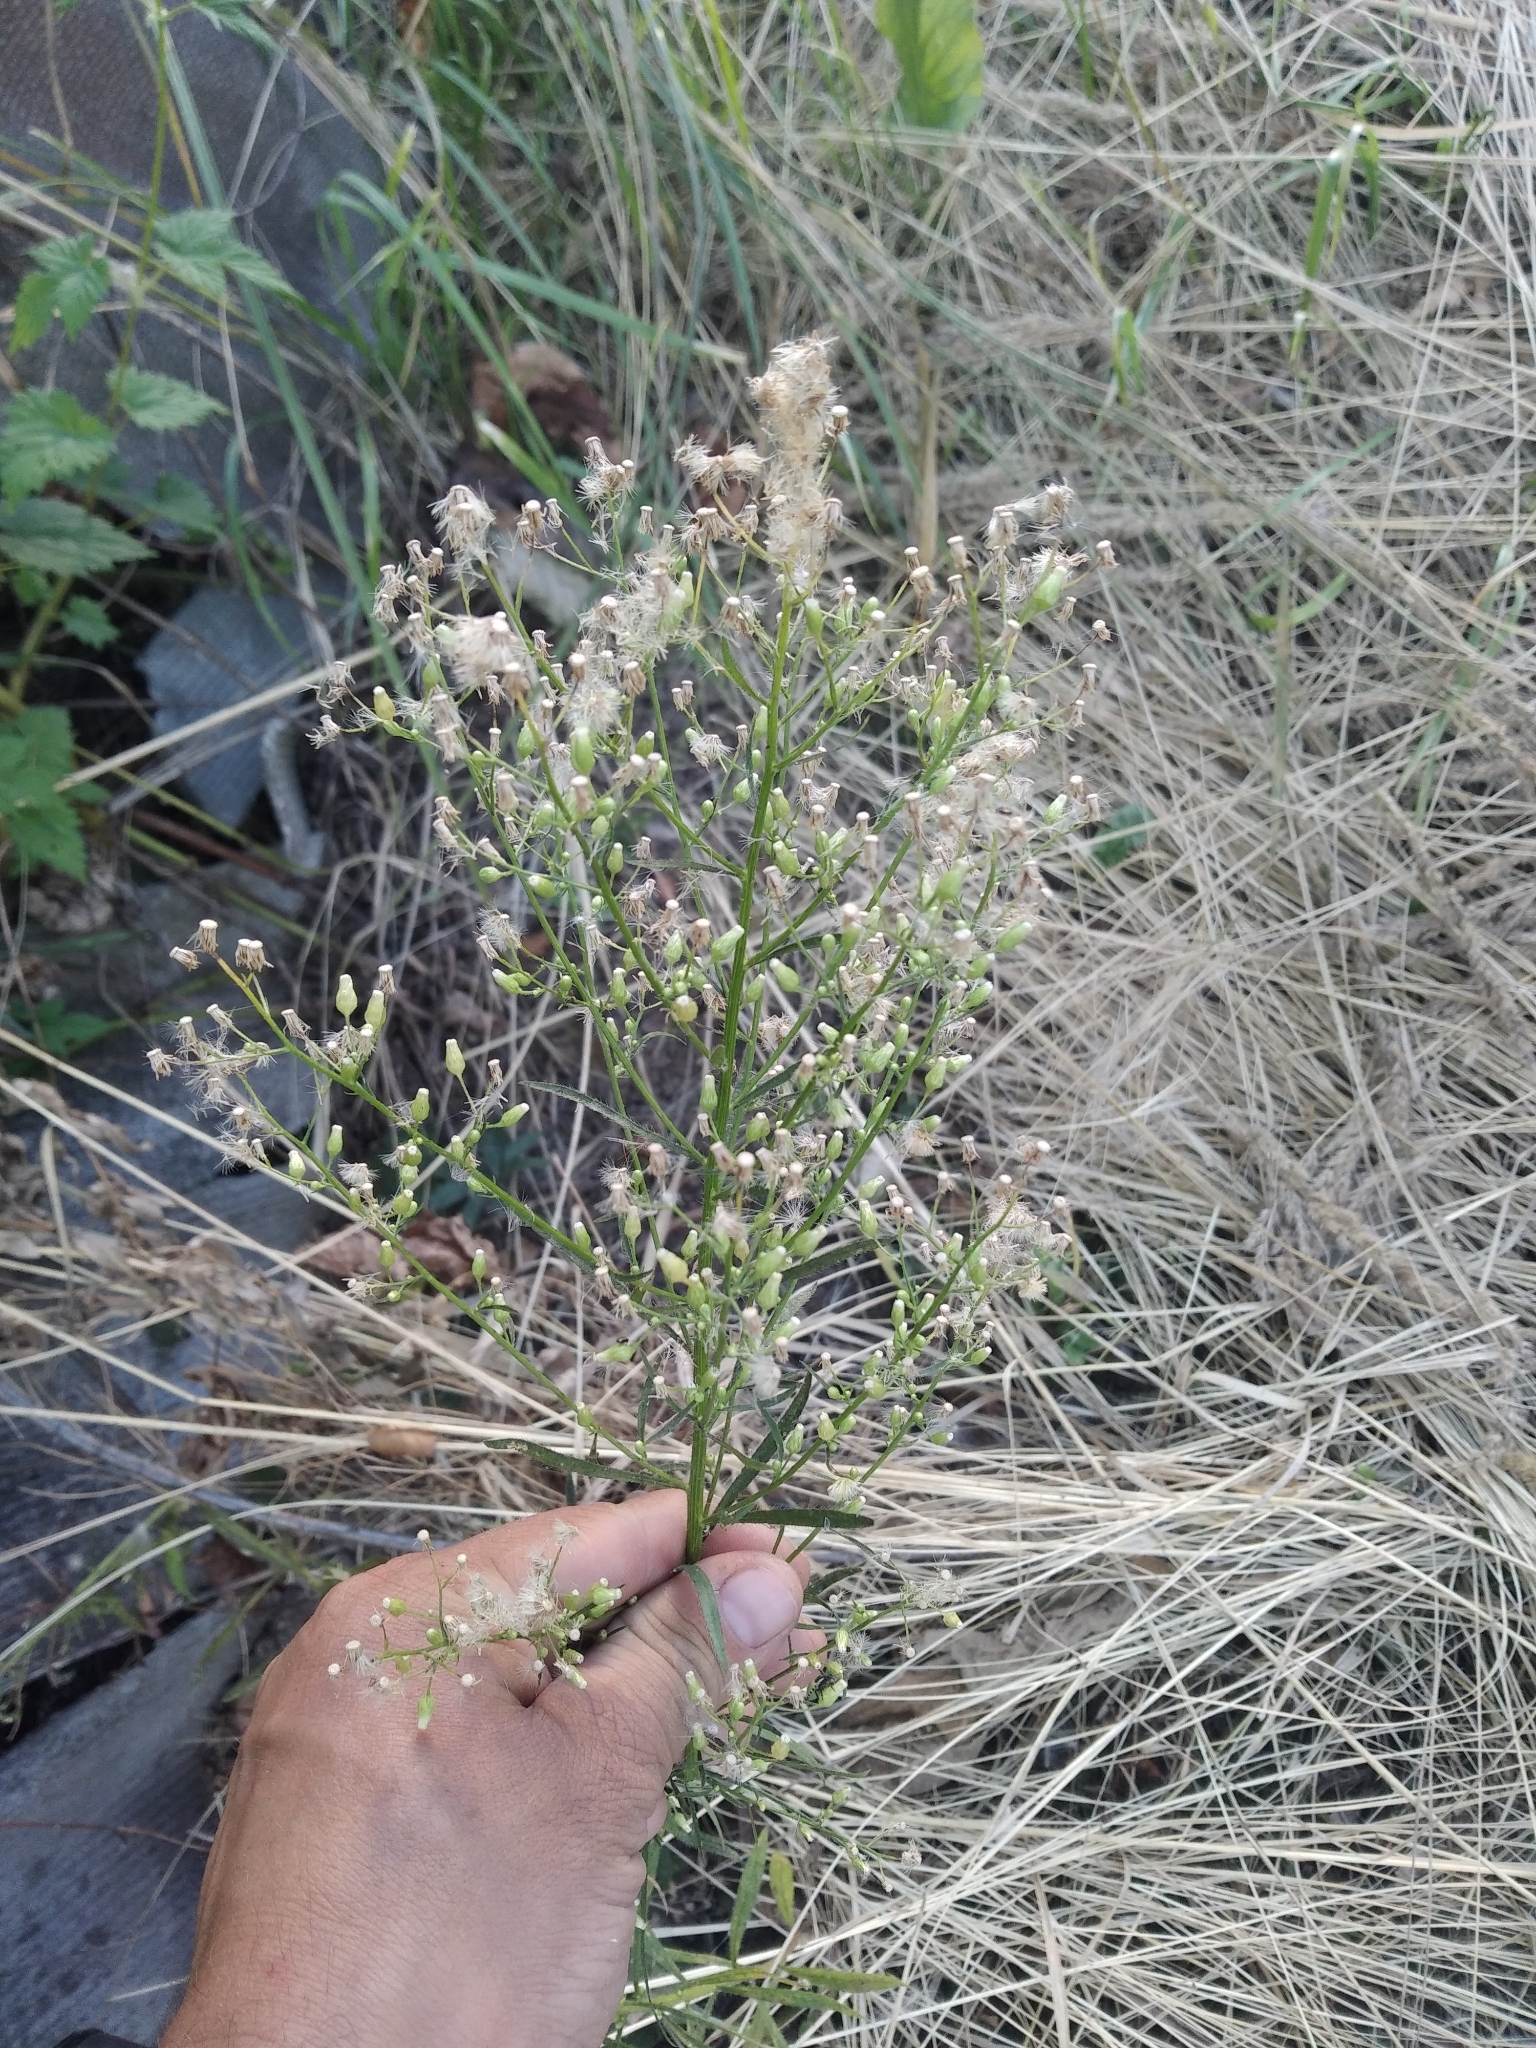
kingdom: Plantae
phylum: Tracheophyta
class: Magnoliopsida
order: Asterales
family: Asteraceae
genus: Erigeron
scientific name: Erigeron canadensis
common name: Canadian fleabane
